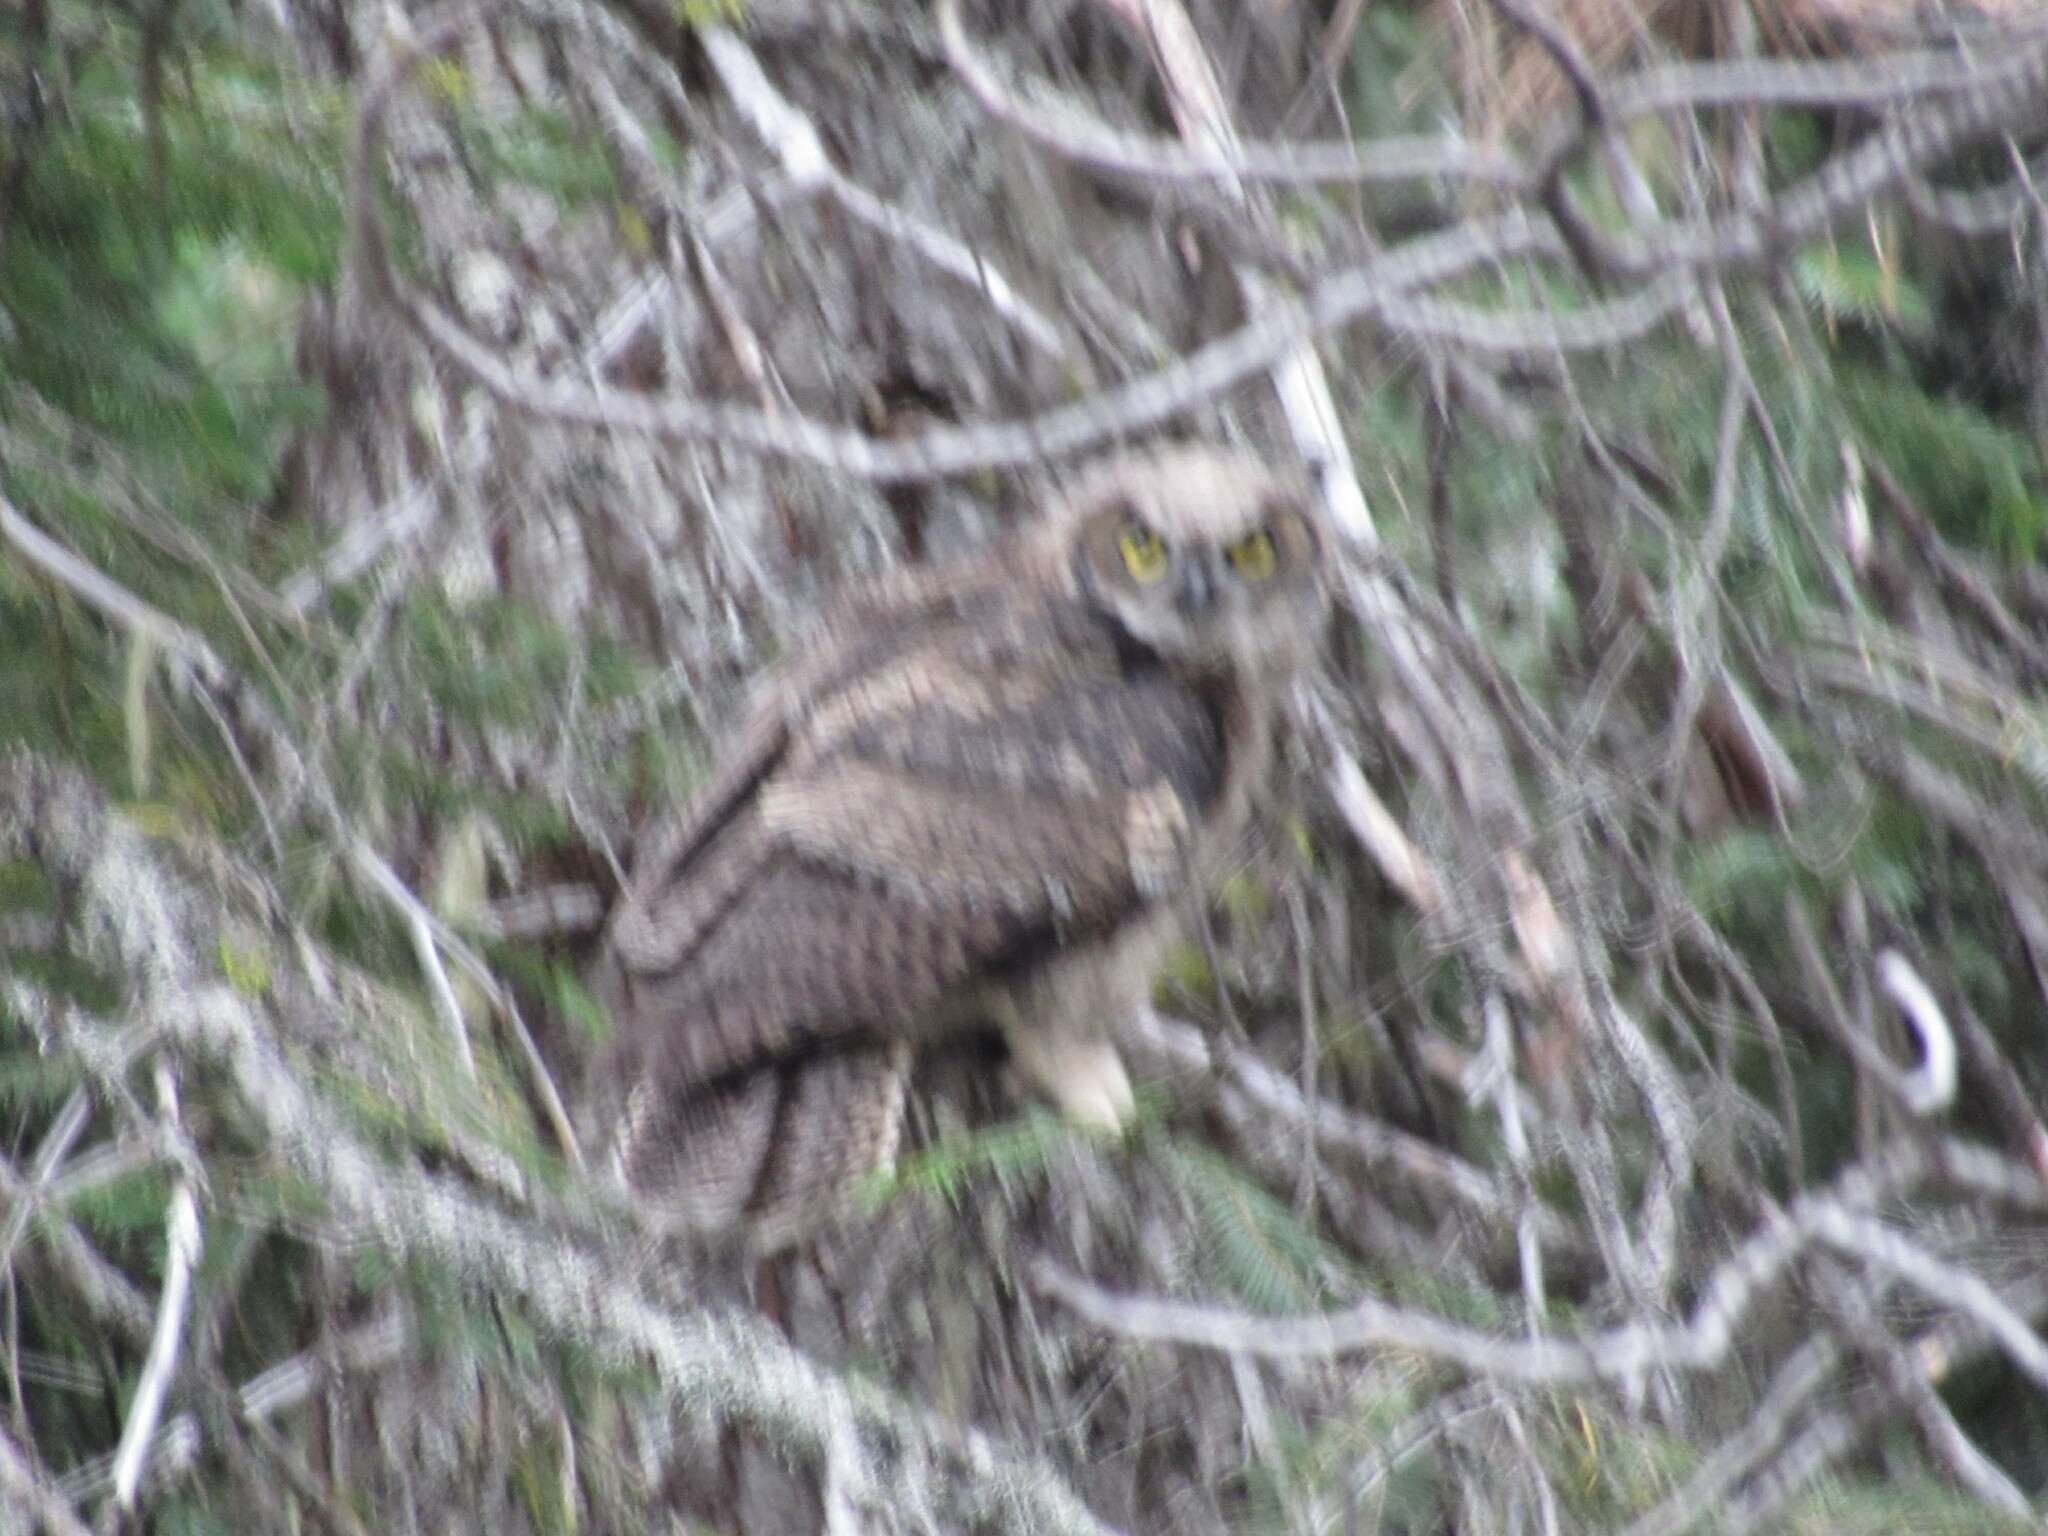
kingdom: Animalia
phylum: Chordata
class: Aves
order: Strigiformes
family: Strigidae
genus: Bubo
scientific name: Bubo virginianus
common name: Great horned owl
